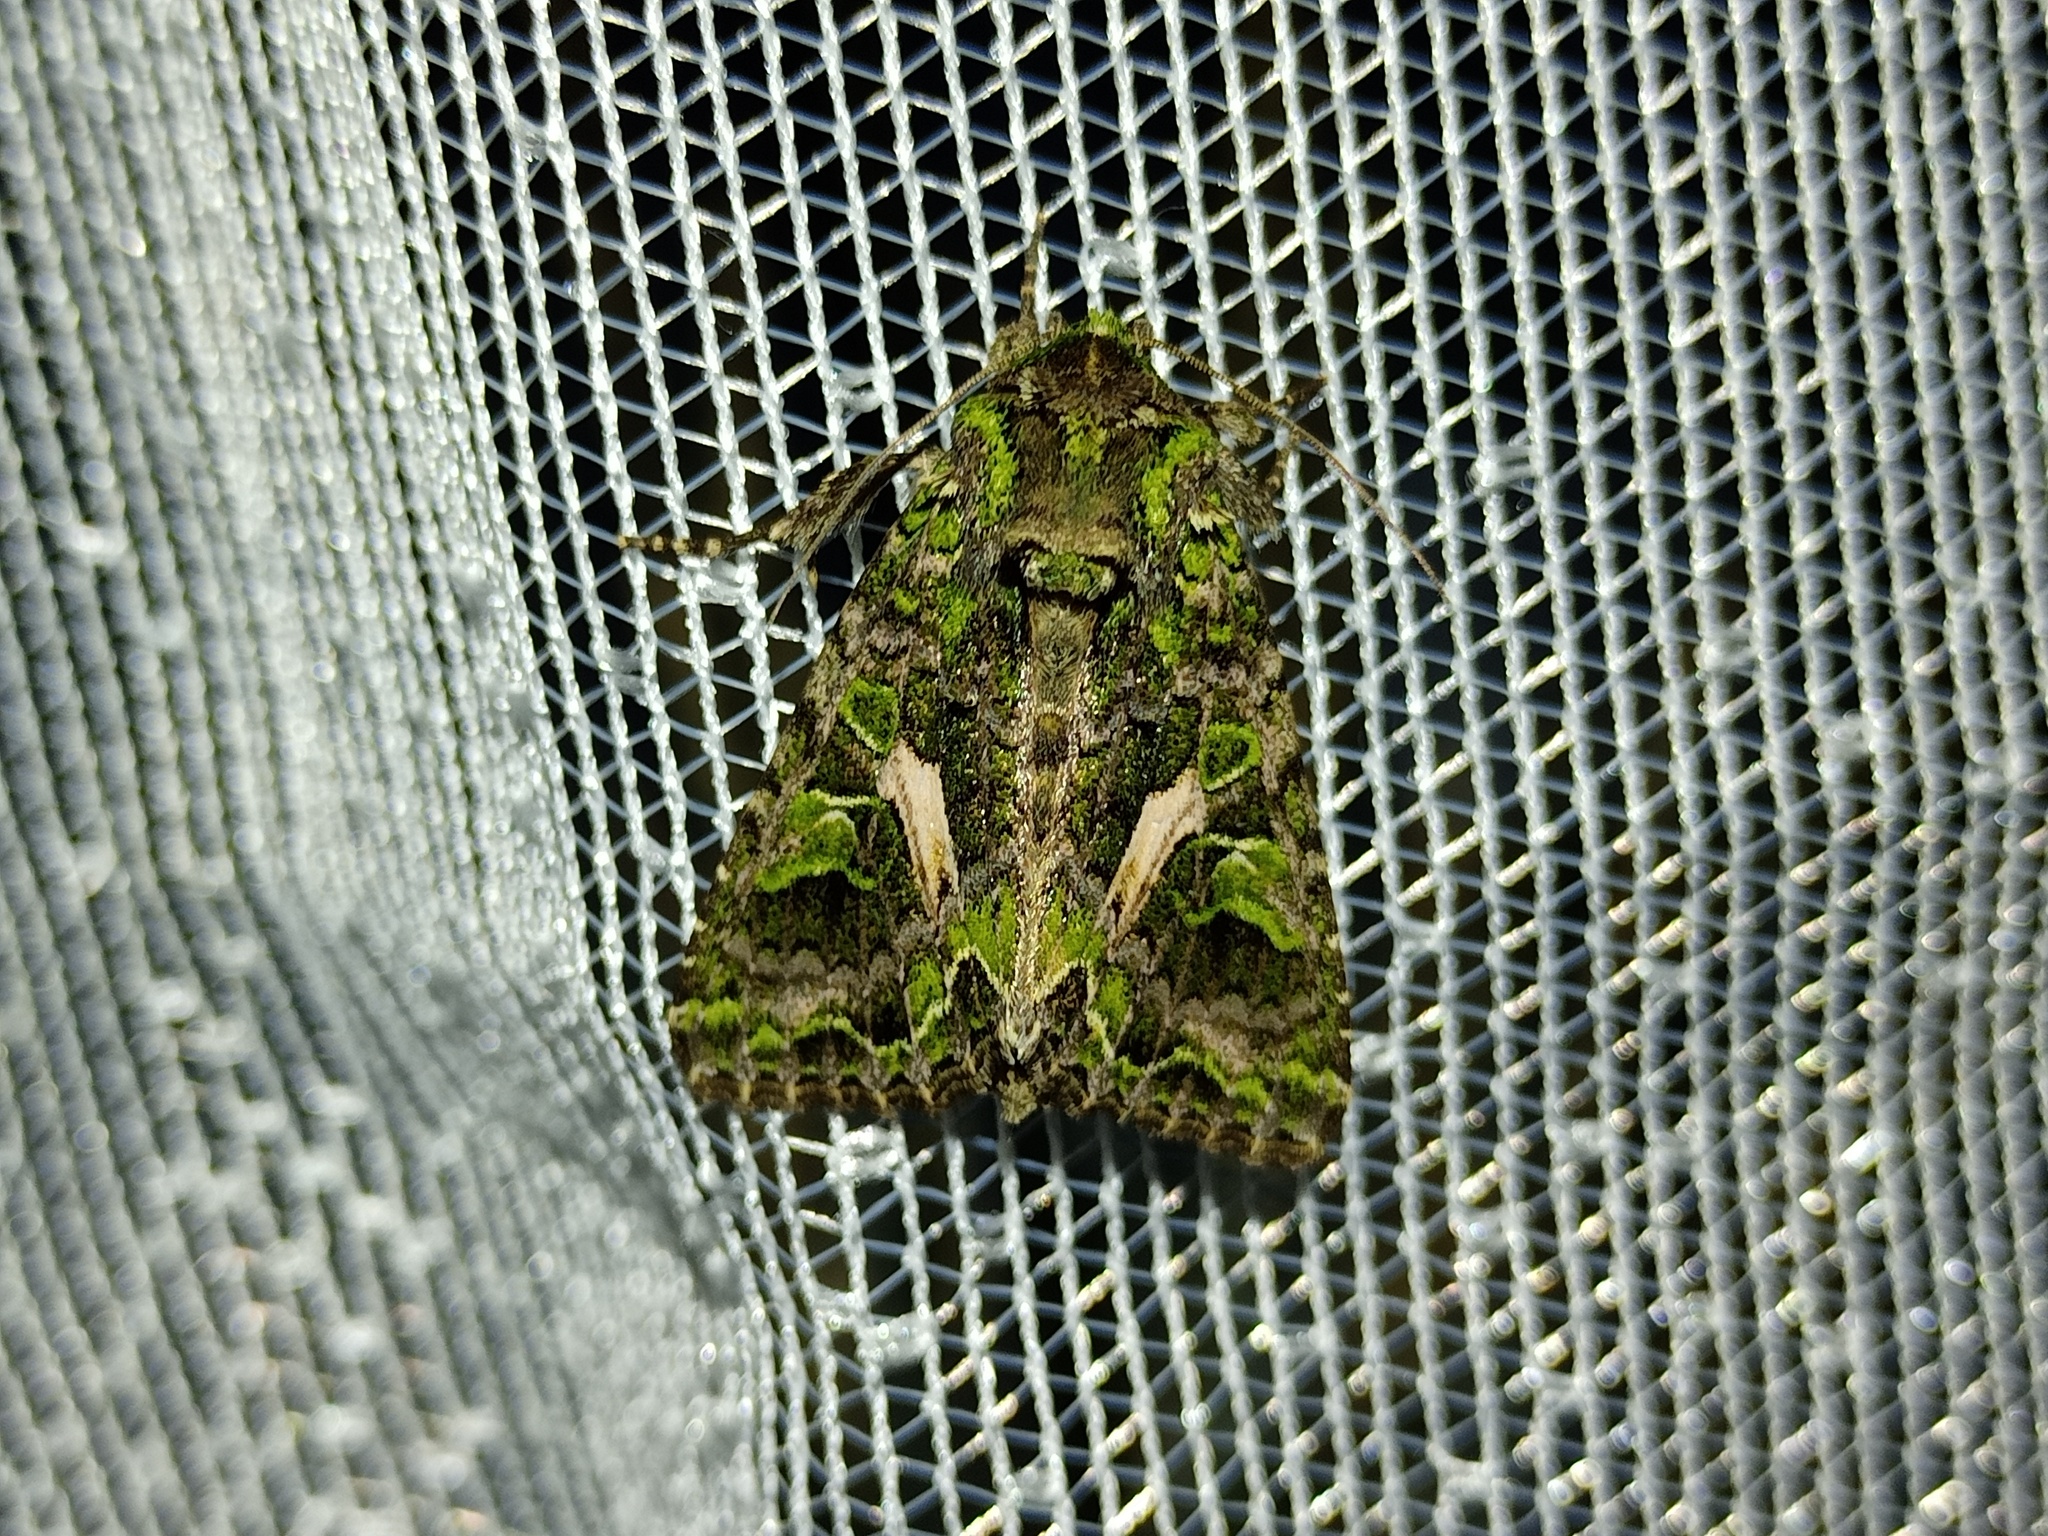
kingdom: Animalia
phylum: Arthropoda
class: Insecta
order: Lepidoptera
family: Noctuidae
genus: Trachea
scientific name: Trachea atriplicis
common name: Orache moth
